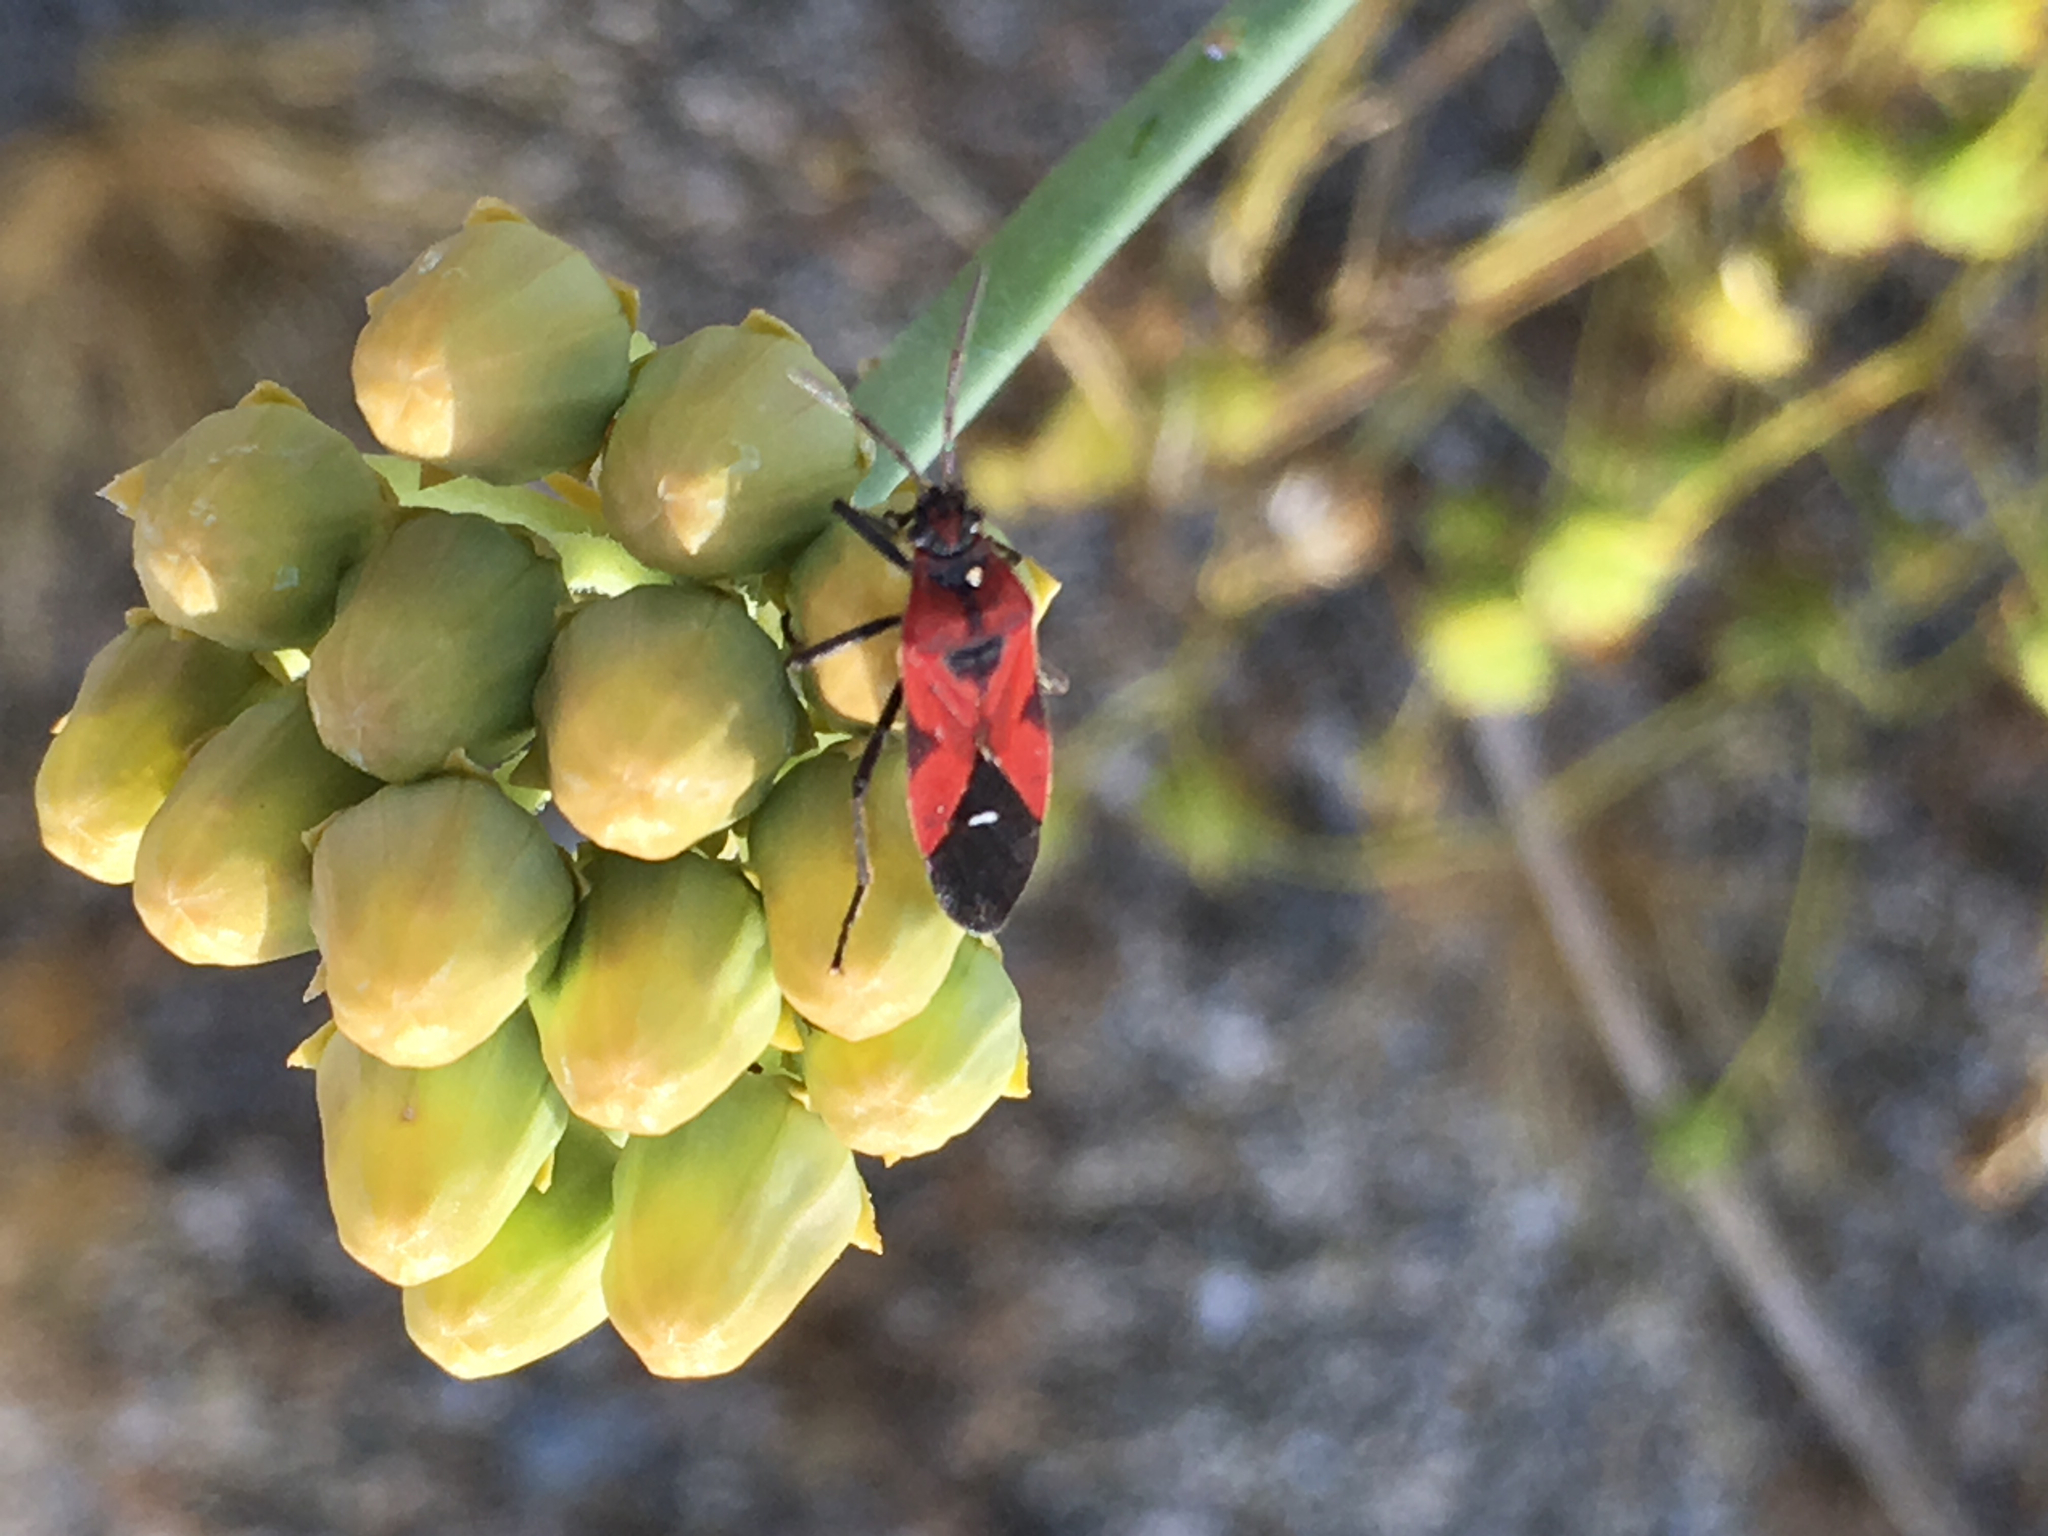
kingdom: Animalia
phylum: Arthropoda
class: Insecta
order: Hemiptera
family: Lygaeidae
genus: Oncopeltus
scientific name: Oncopeltus sanguinolentus
